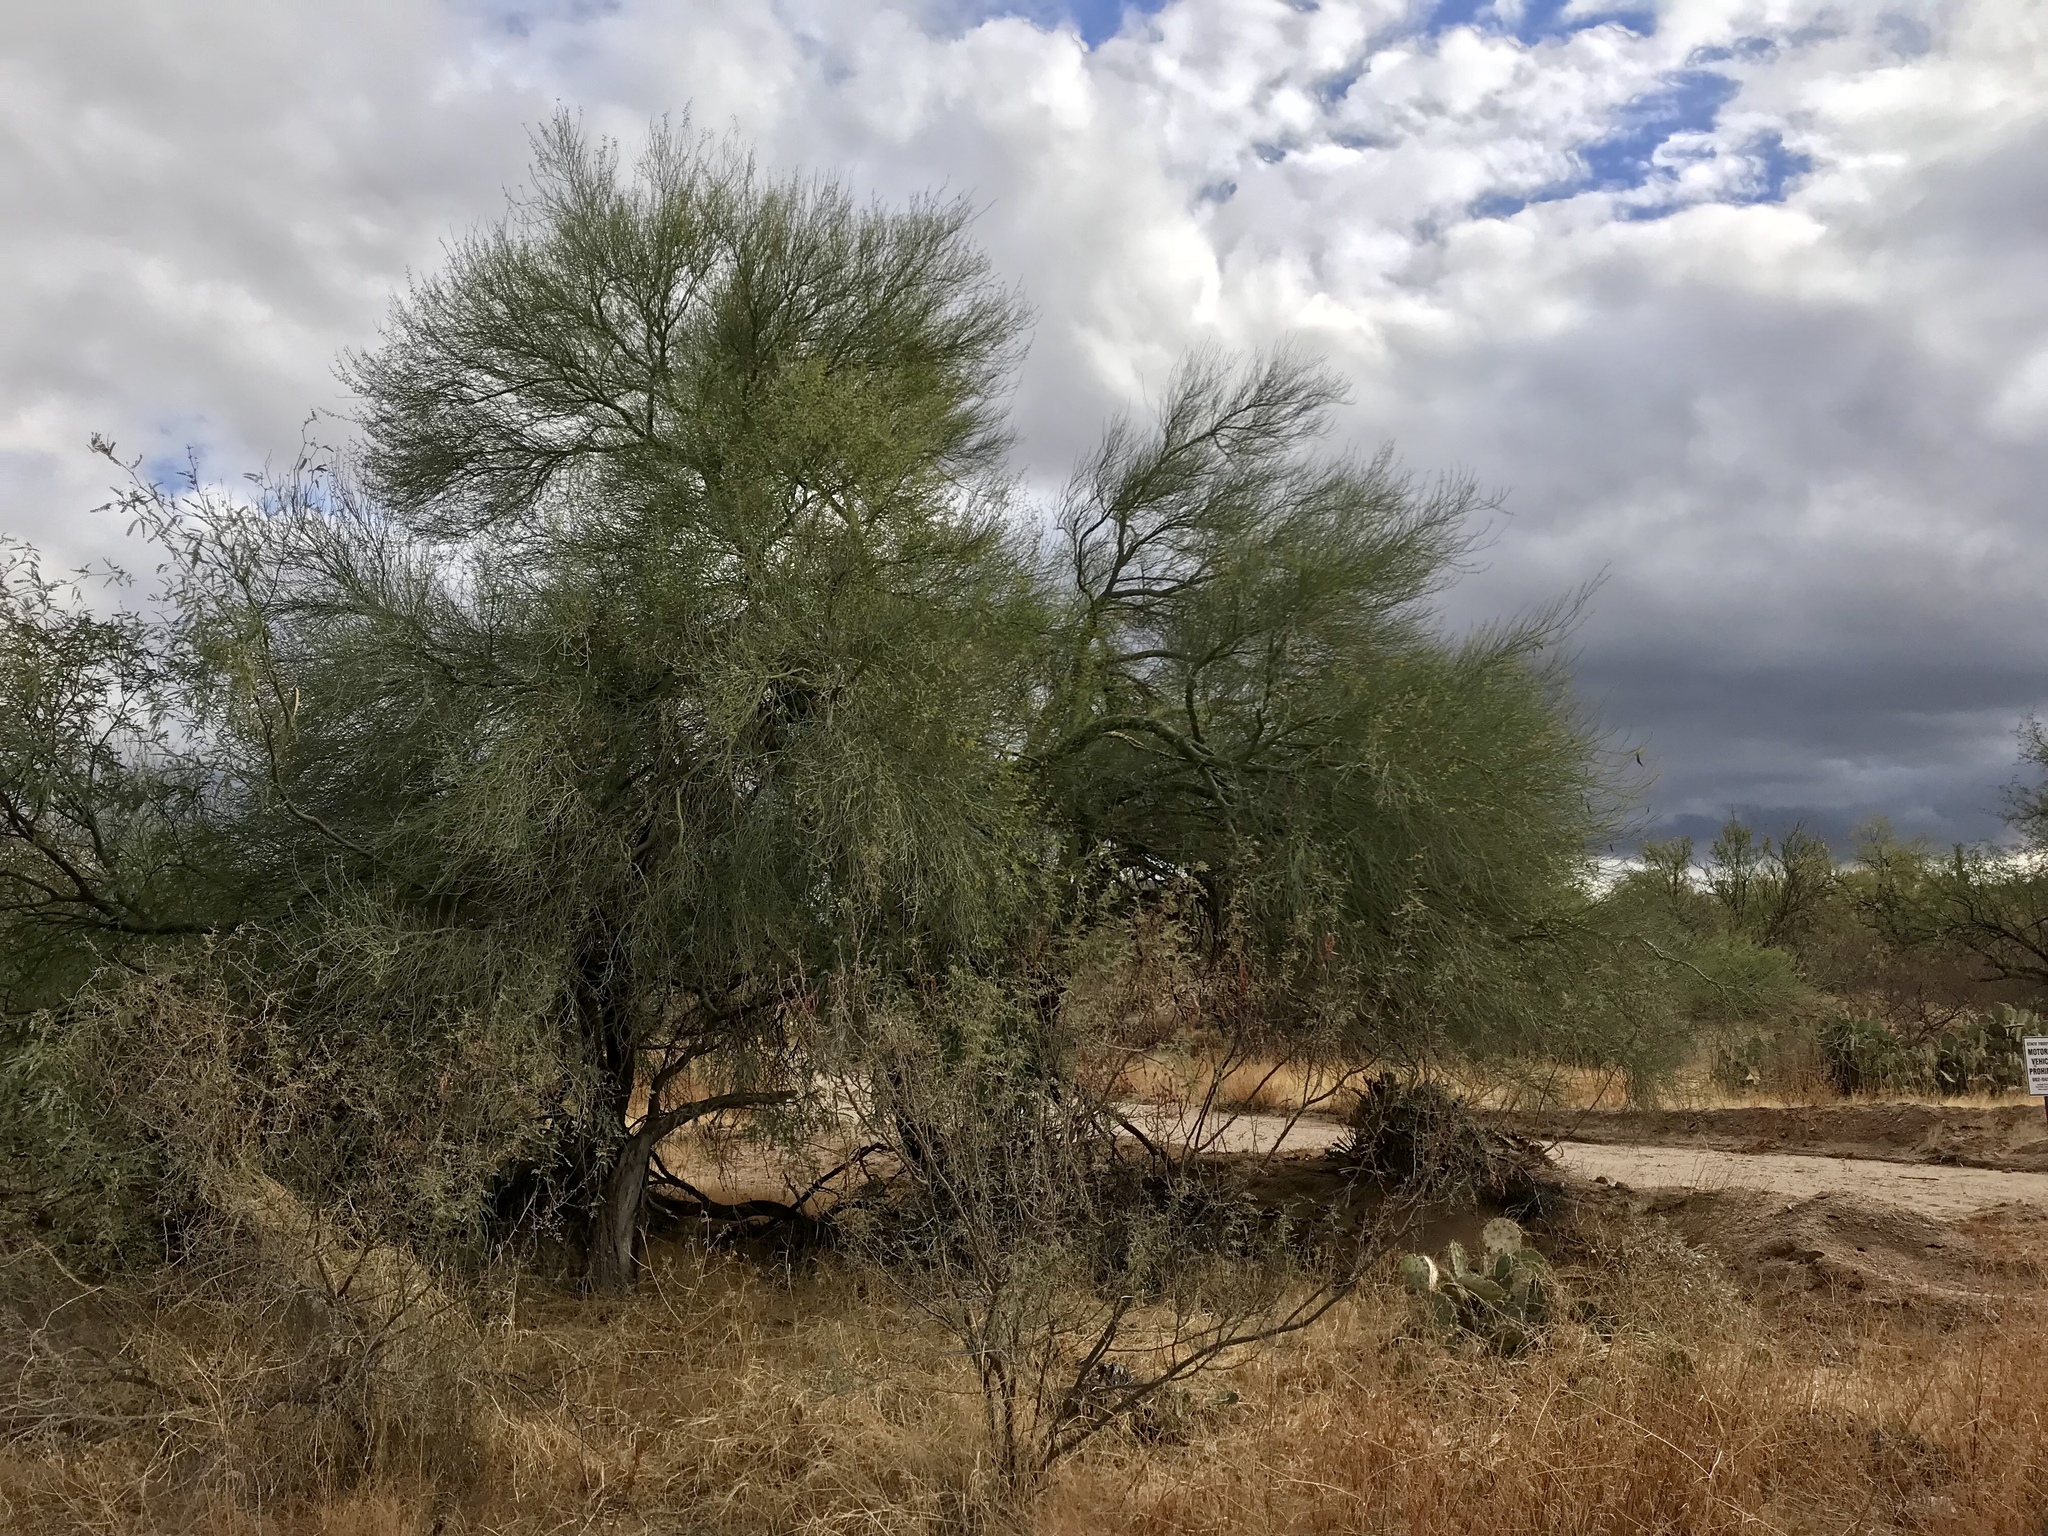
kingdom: Plantae
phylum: Tracheophyta
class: Magnoliopsida
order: Fabales
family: Fabaceae
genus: Parkinsonia
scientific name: Parkinsonia florida
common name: Blue paloverde
